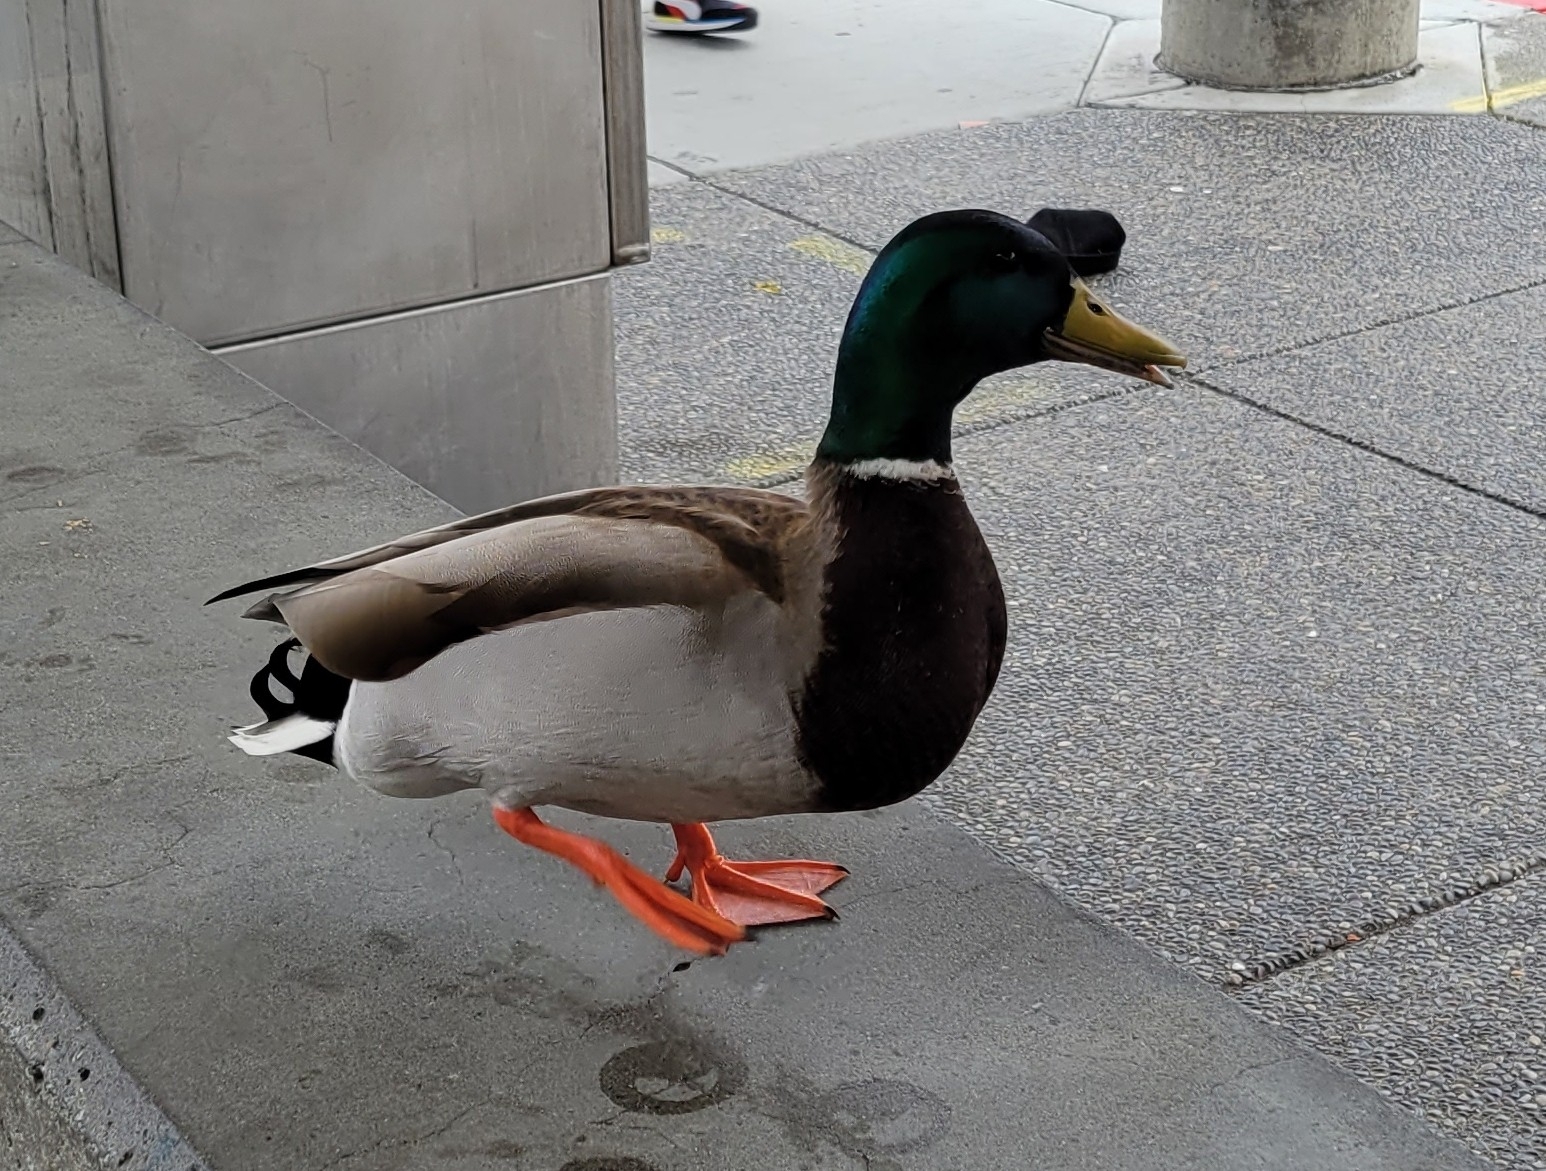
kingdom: Animalia
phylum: Chordata
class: Aves
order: Anseriformes
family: Anatidae
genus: Anas
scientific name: Anas platyrhynchos
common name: Mallard
